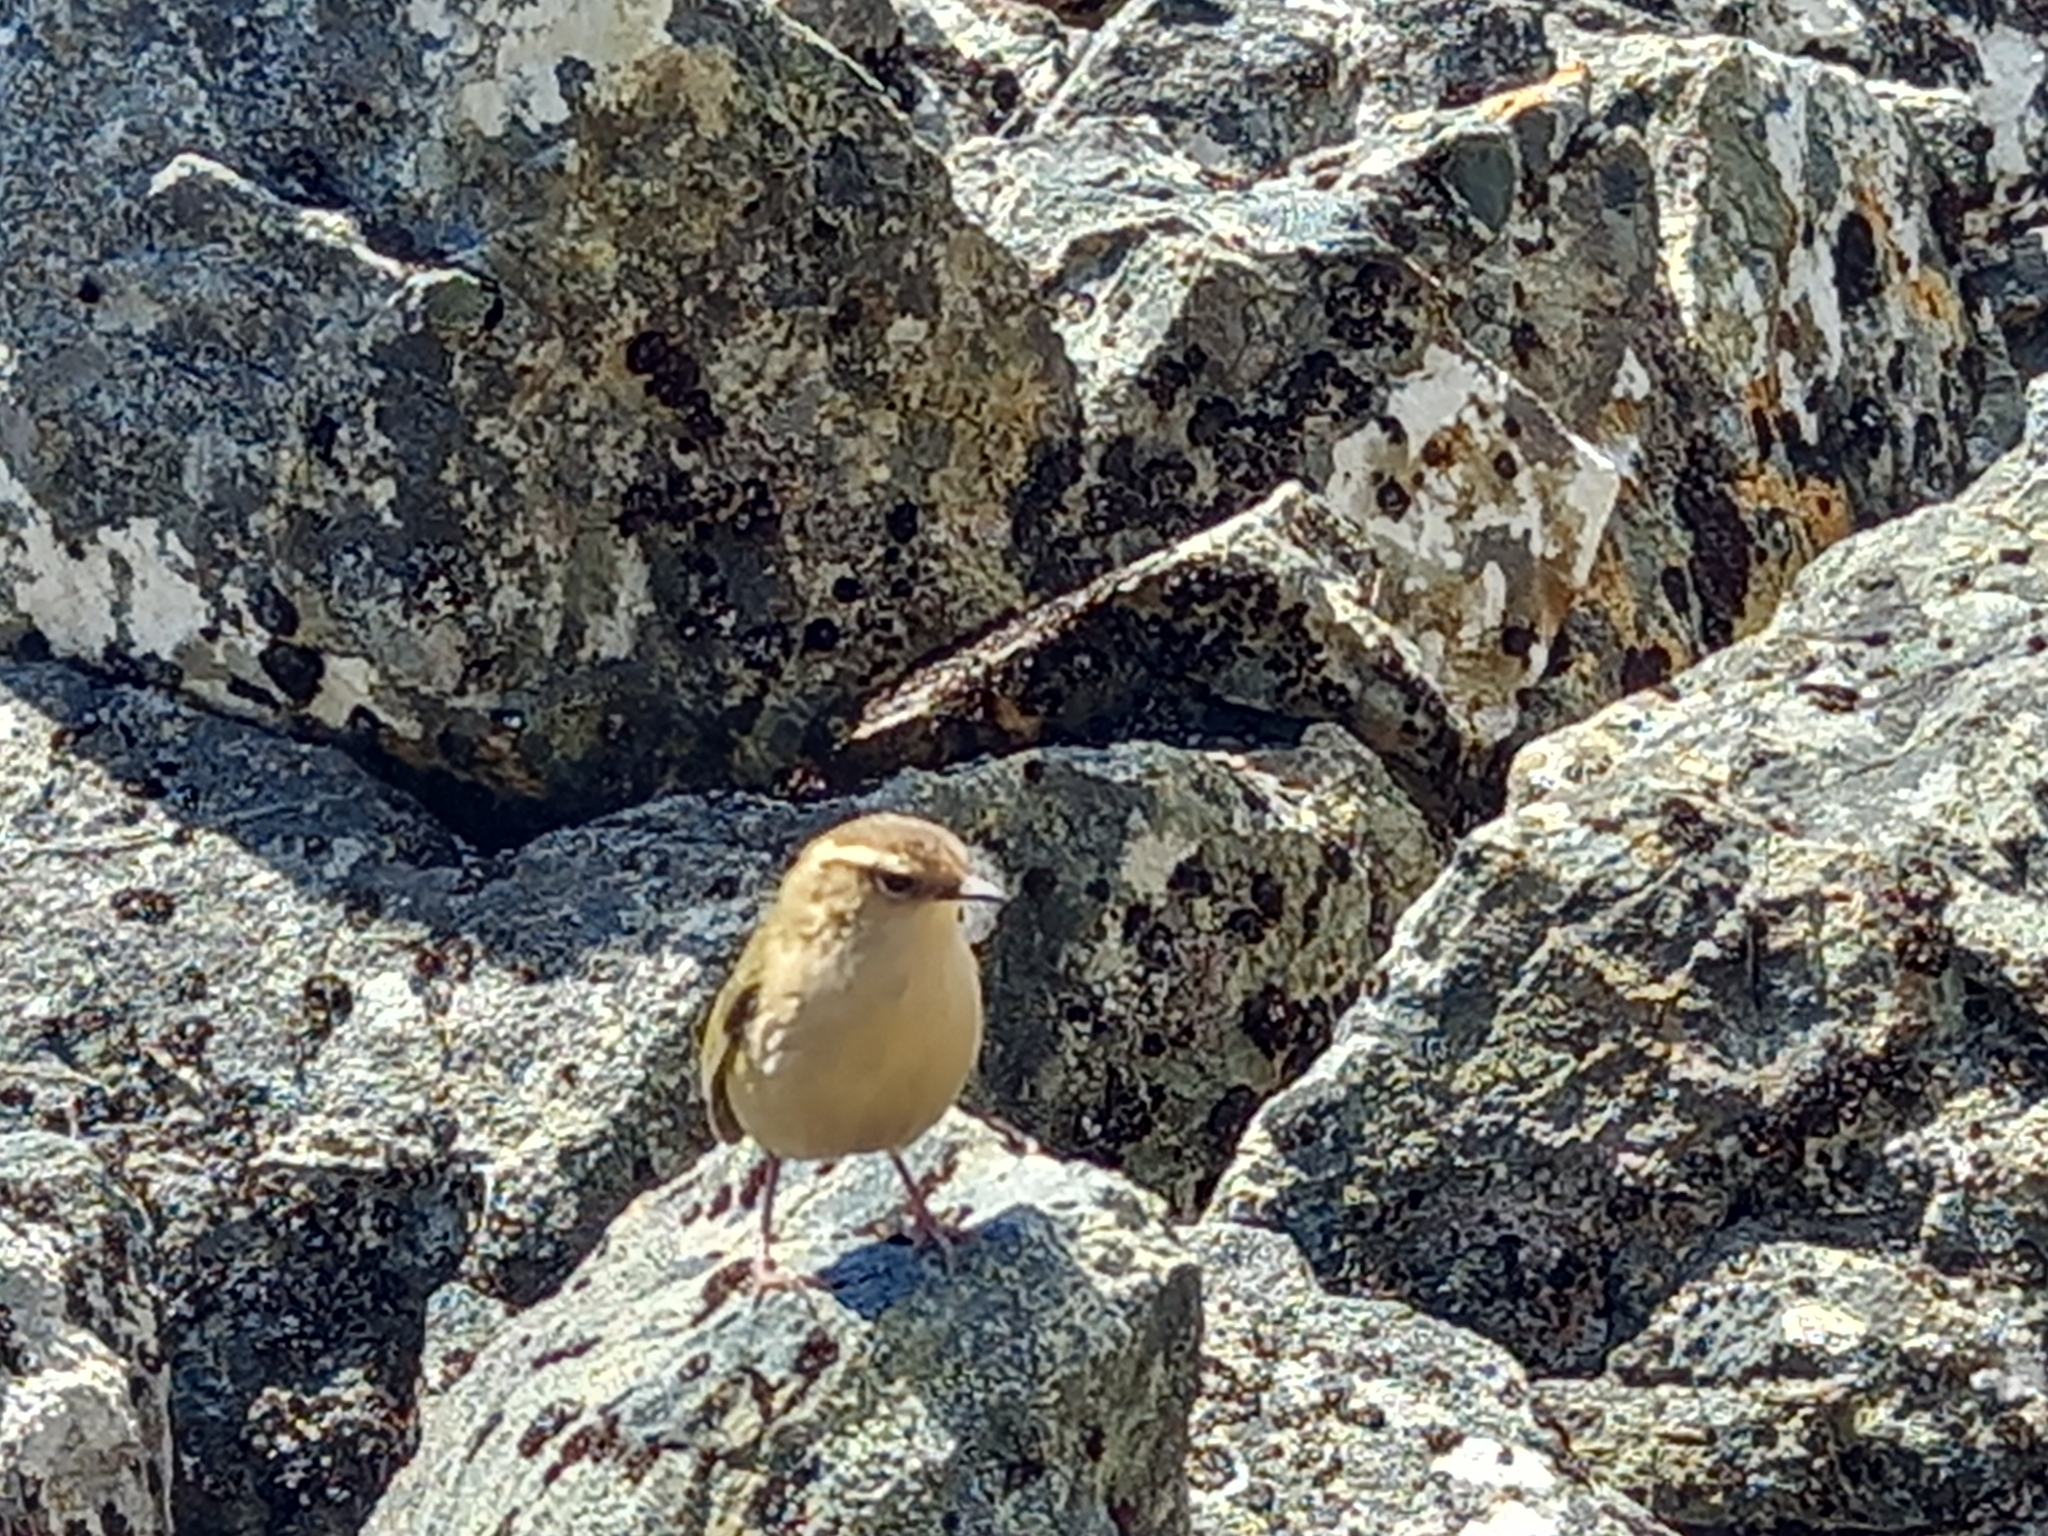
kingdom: Animalia
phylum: Chordata
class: Aves
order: Passeriformes
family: Acanthisittidae
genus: Xenicus
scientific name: Xenicus gilviventris
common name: New zealand rockwren
